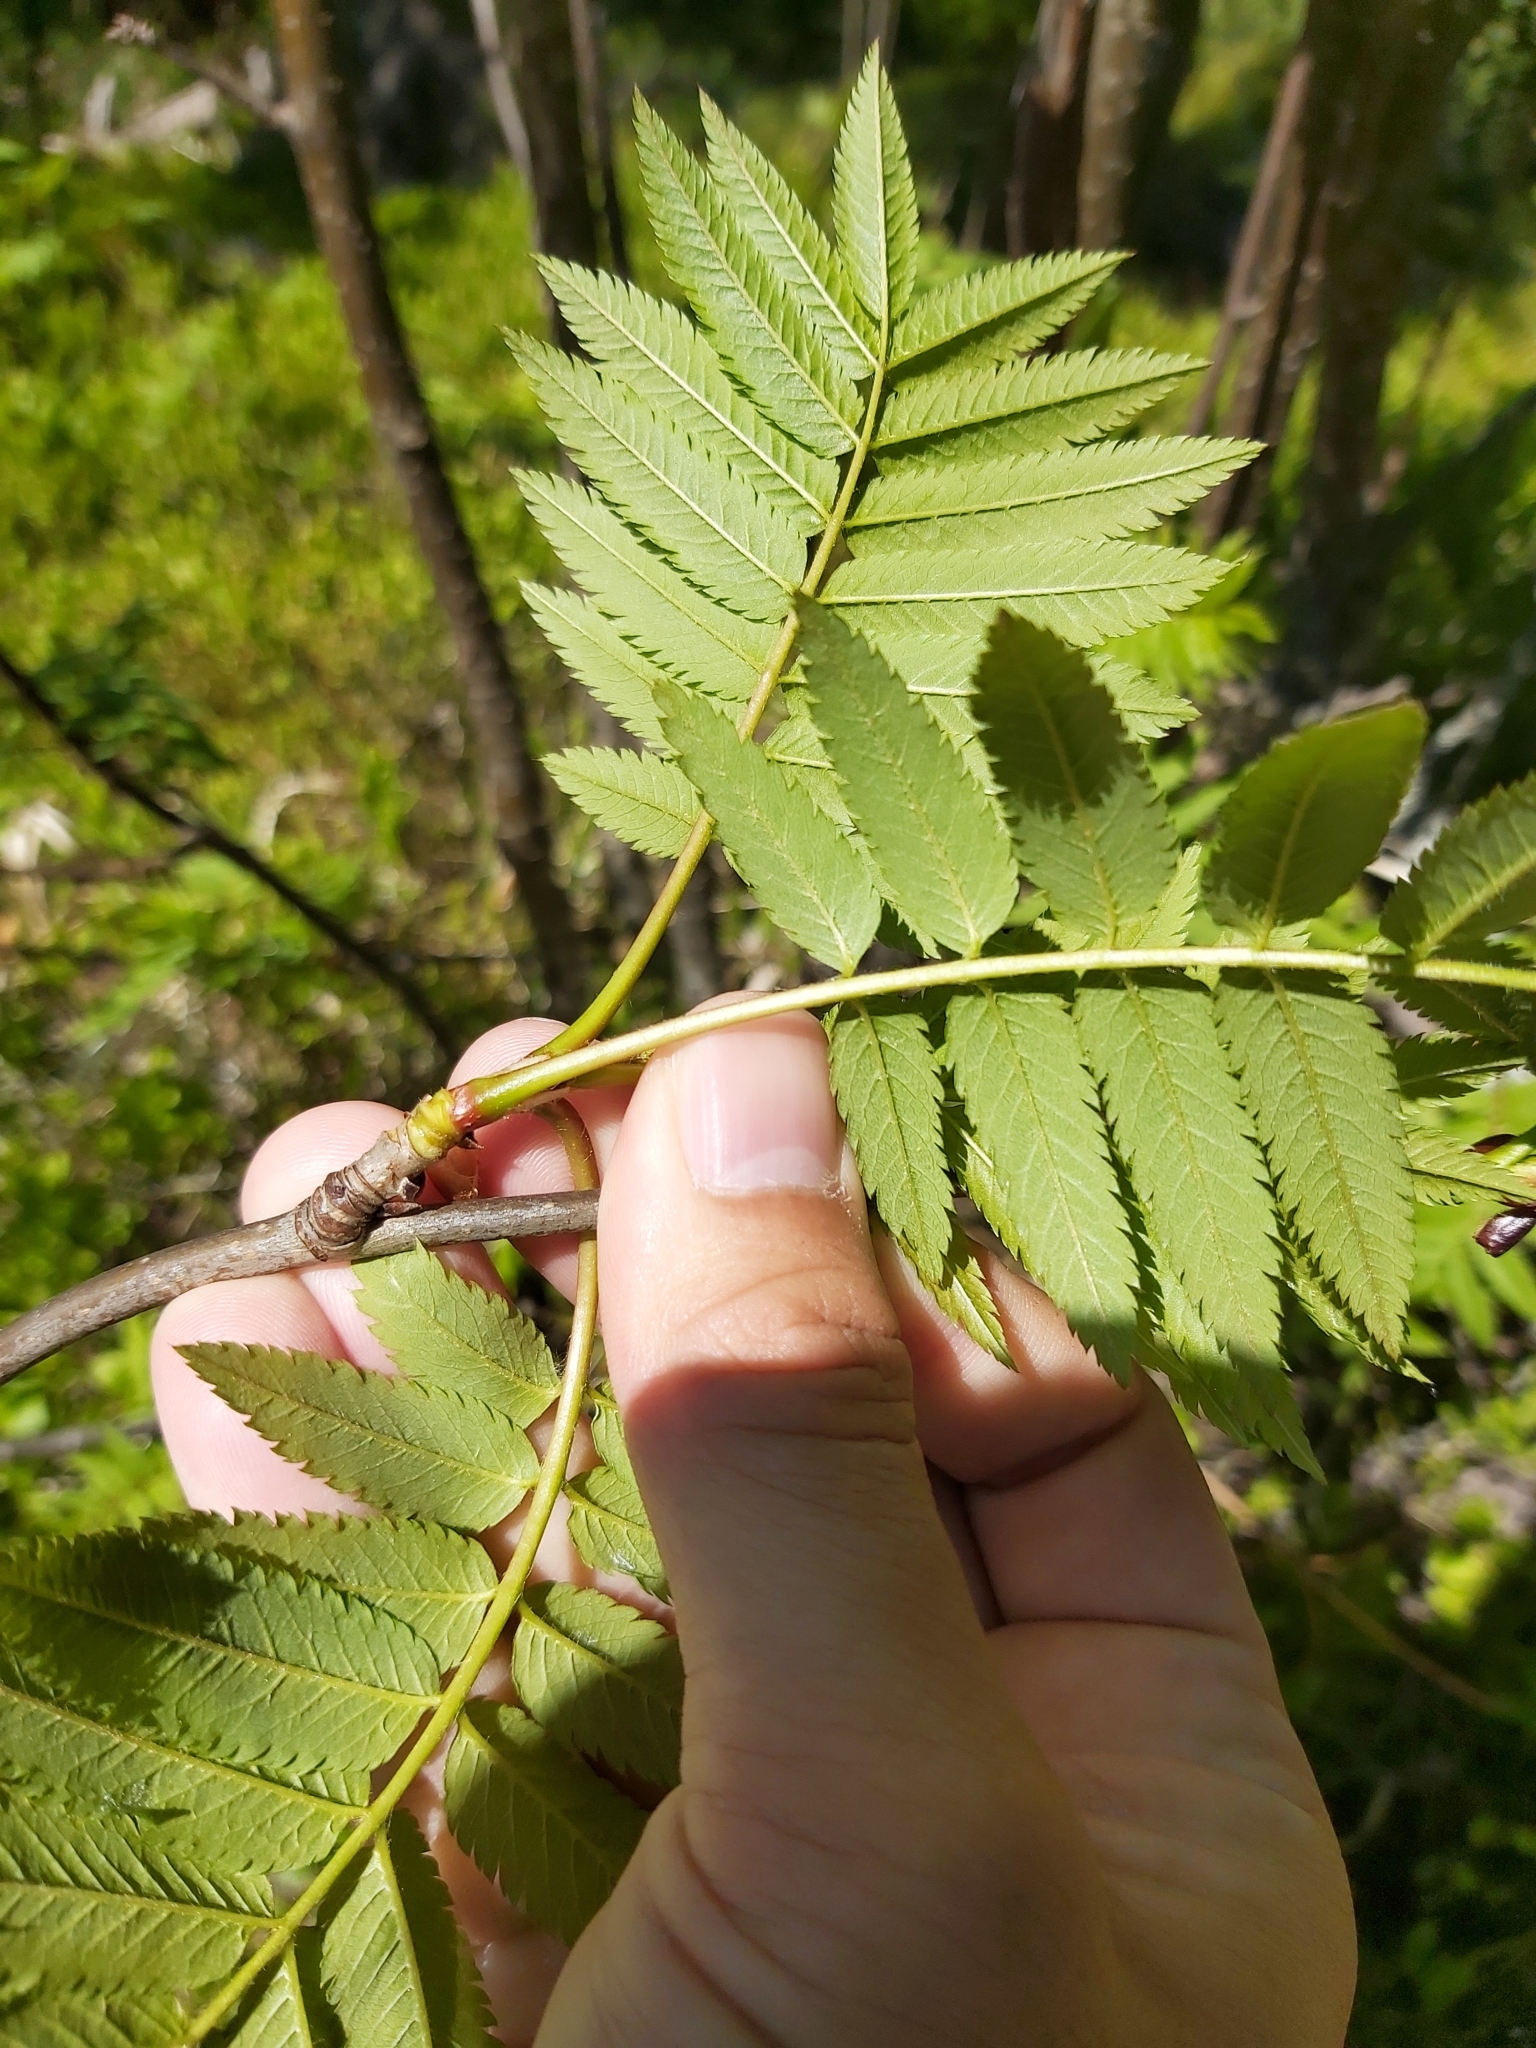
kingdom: Plantae
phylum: Tracheophyta
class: Magnoliopsida
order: Rosales
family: Rosaceae
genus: Sorbus
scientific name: Sorbus aucuparia
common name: Rowan
